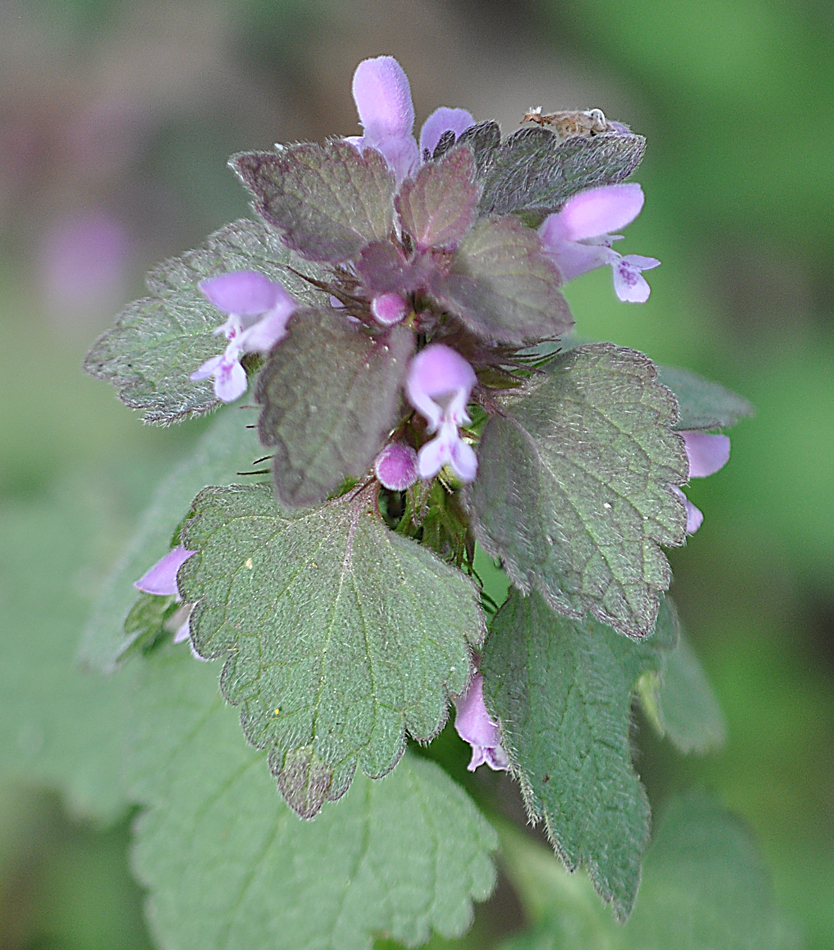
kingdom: Plantae
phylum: Tracheophyta
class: Magnoliopsida
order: Lamiales
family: Lamiaceae
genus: Lamium
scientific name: Lamium purpureum
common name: Red dead-nettle
